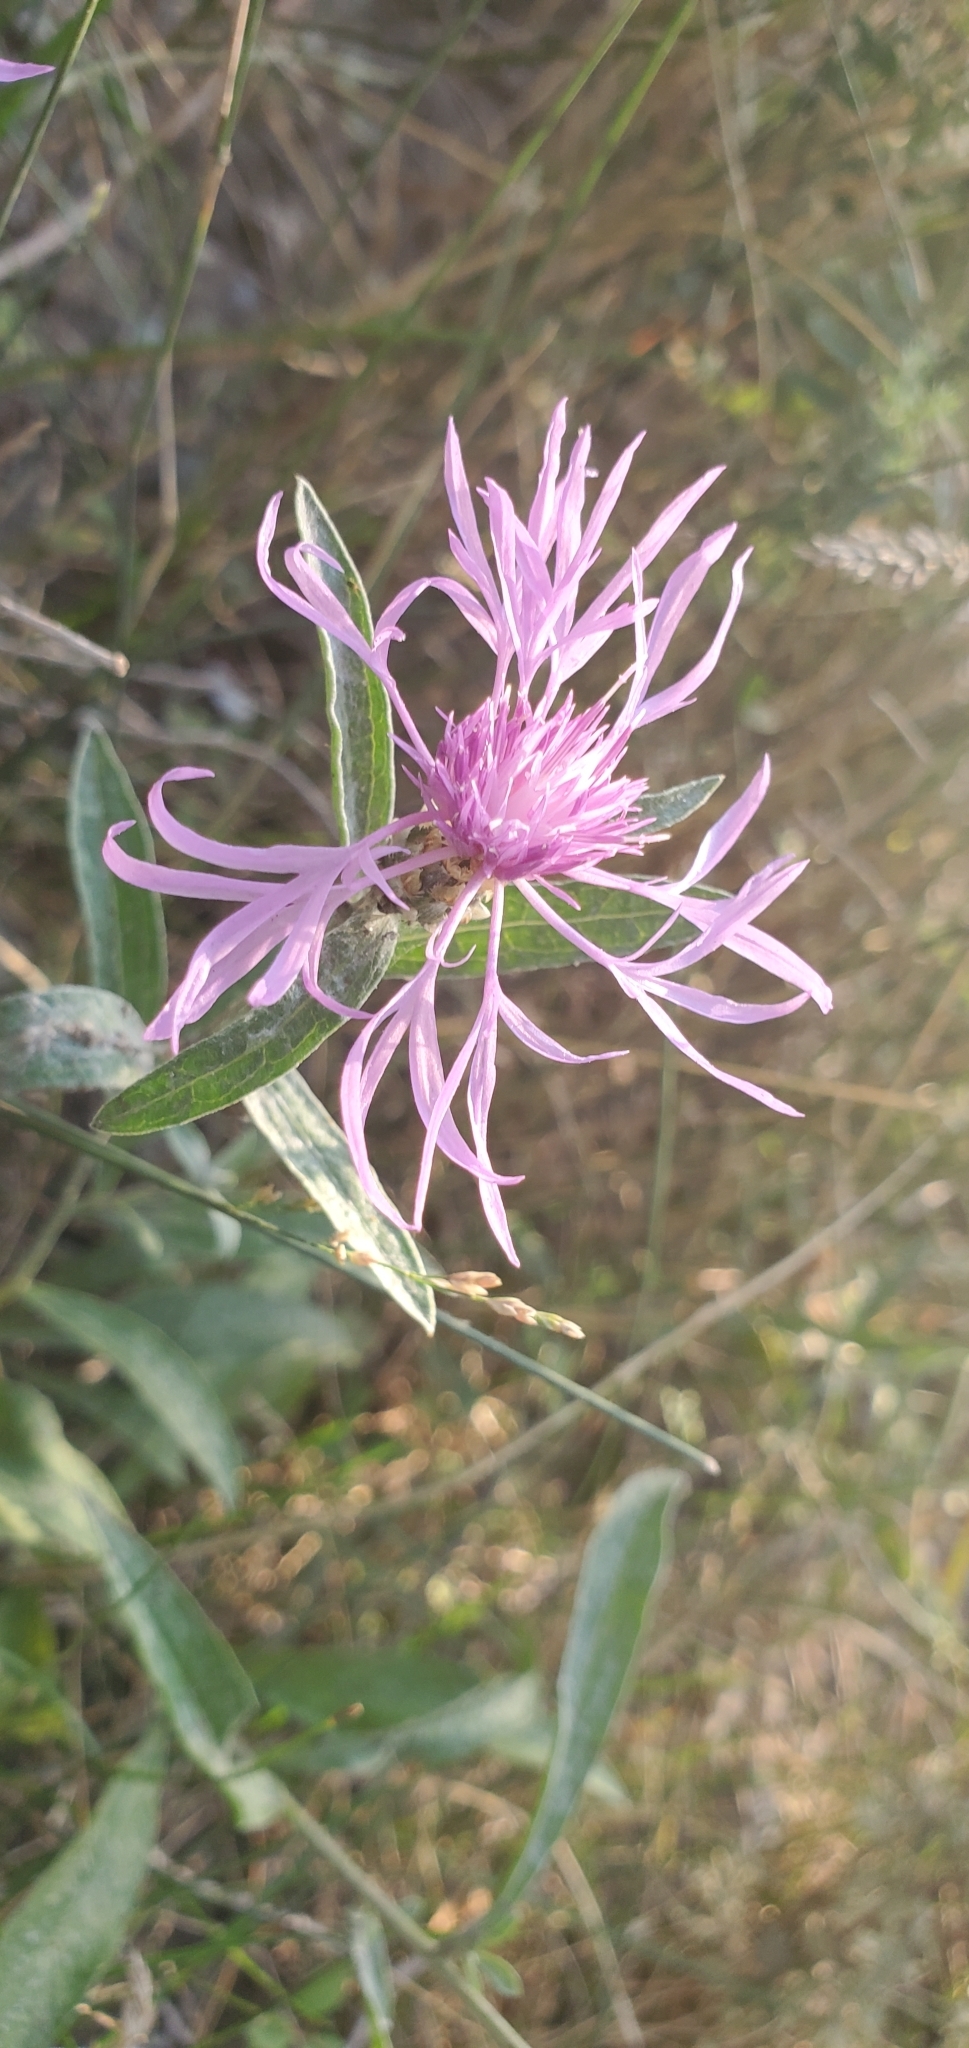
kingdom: Plantae
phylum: Tracheophyta
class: Magnoliopsida
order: Asterales
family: Asteraceae
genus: Centaurea
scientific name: Centaurea jacea
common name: Brown knapweed
